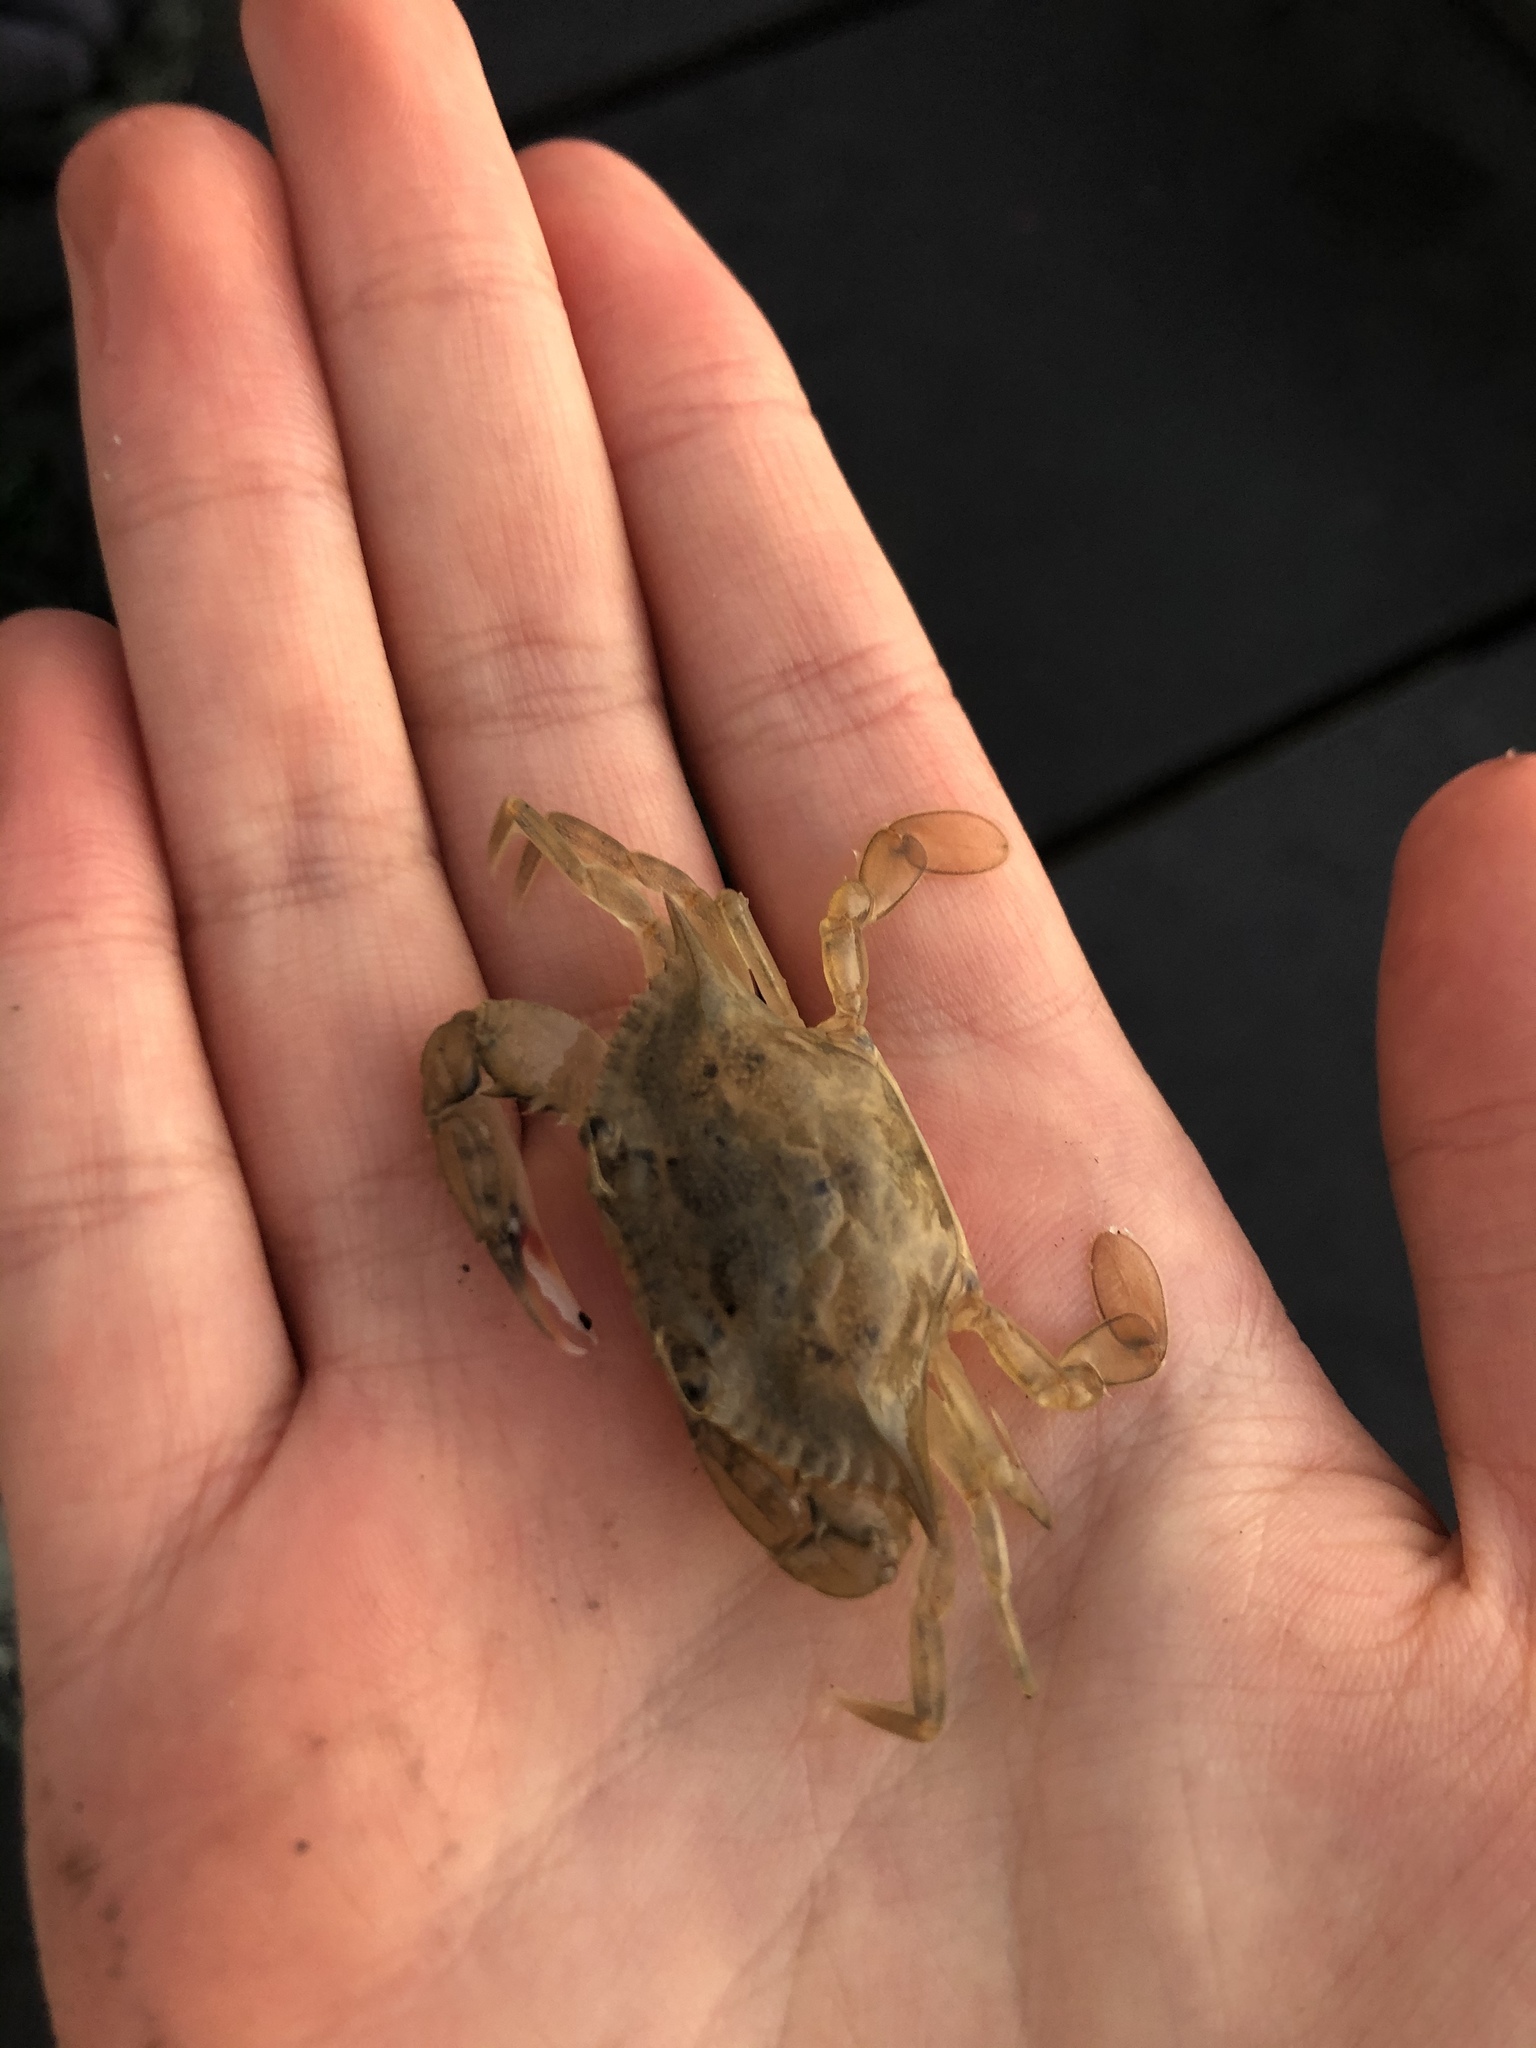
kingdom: Animalia
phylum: Arthropoda
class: Malacostraca
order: Decapoda
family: Portunidae
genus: Callinectes
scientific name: Callinectes sapidus
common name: Blue crab
